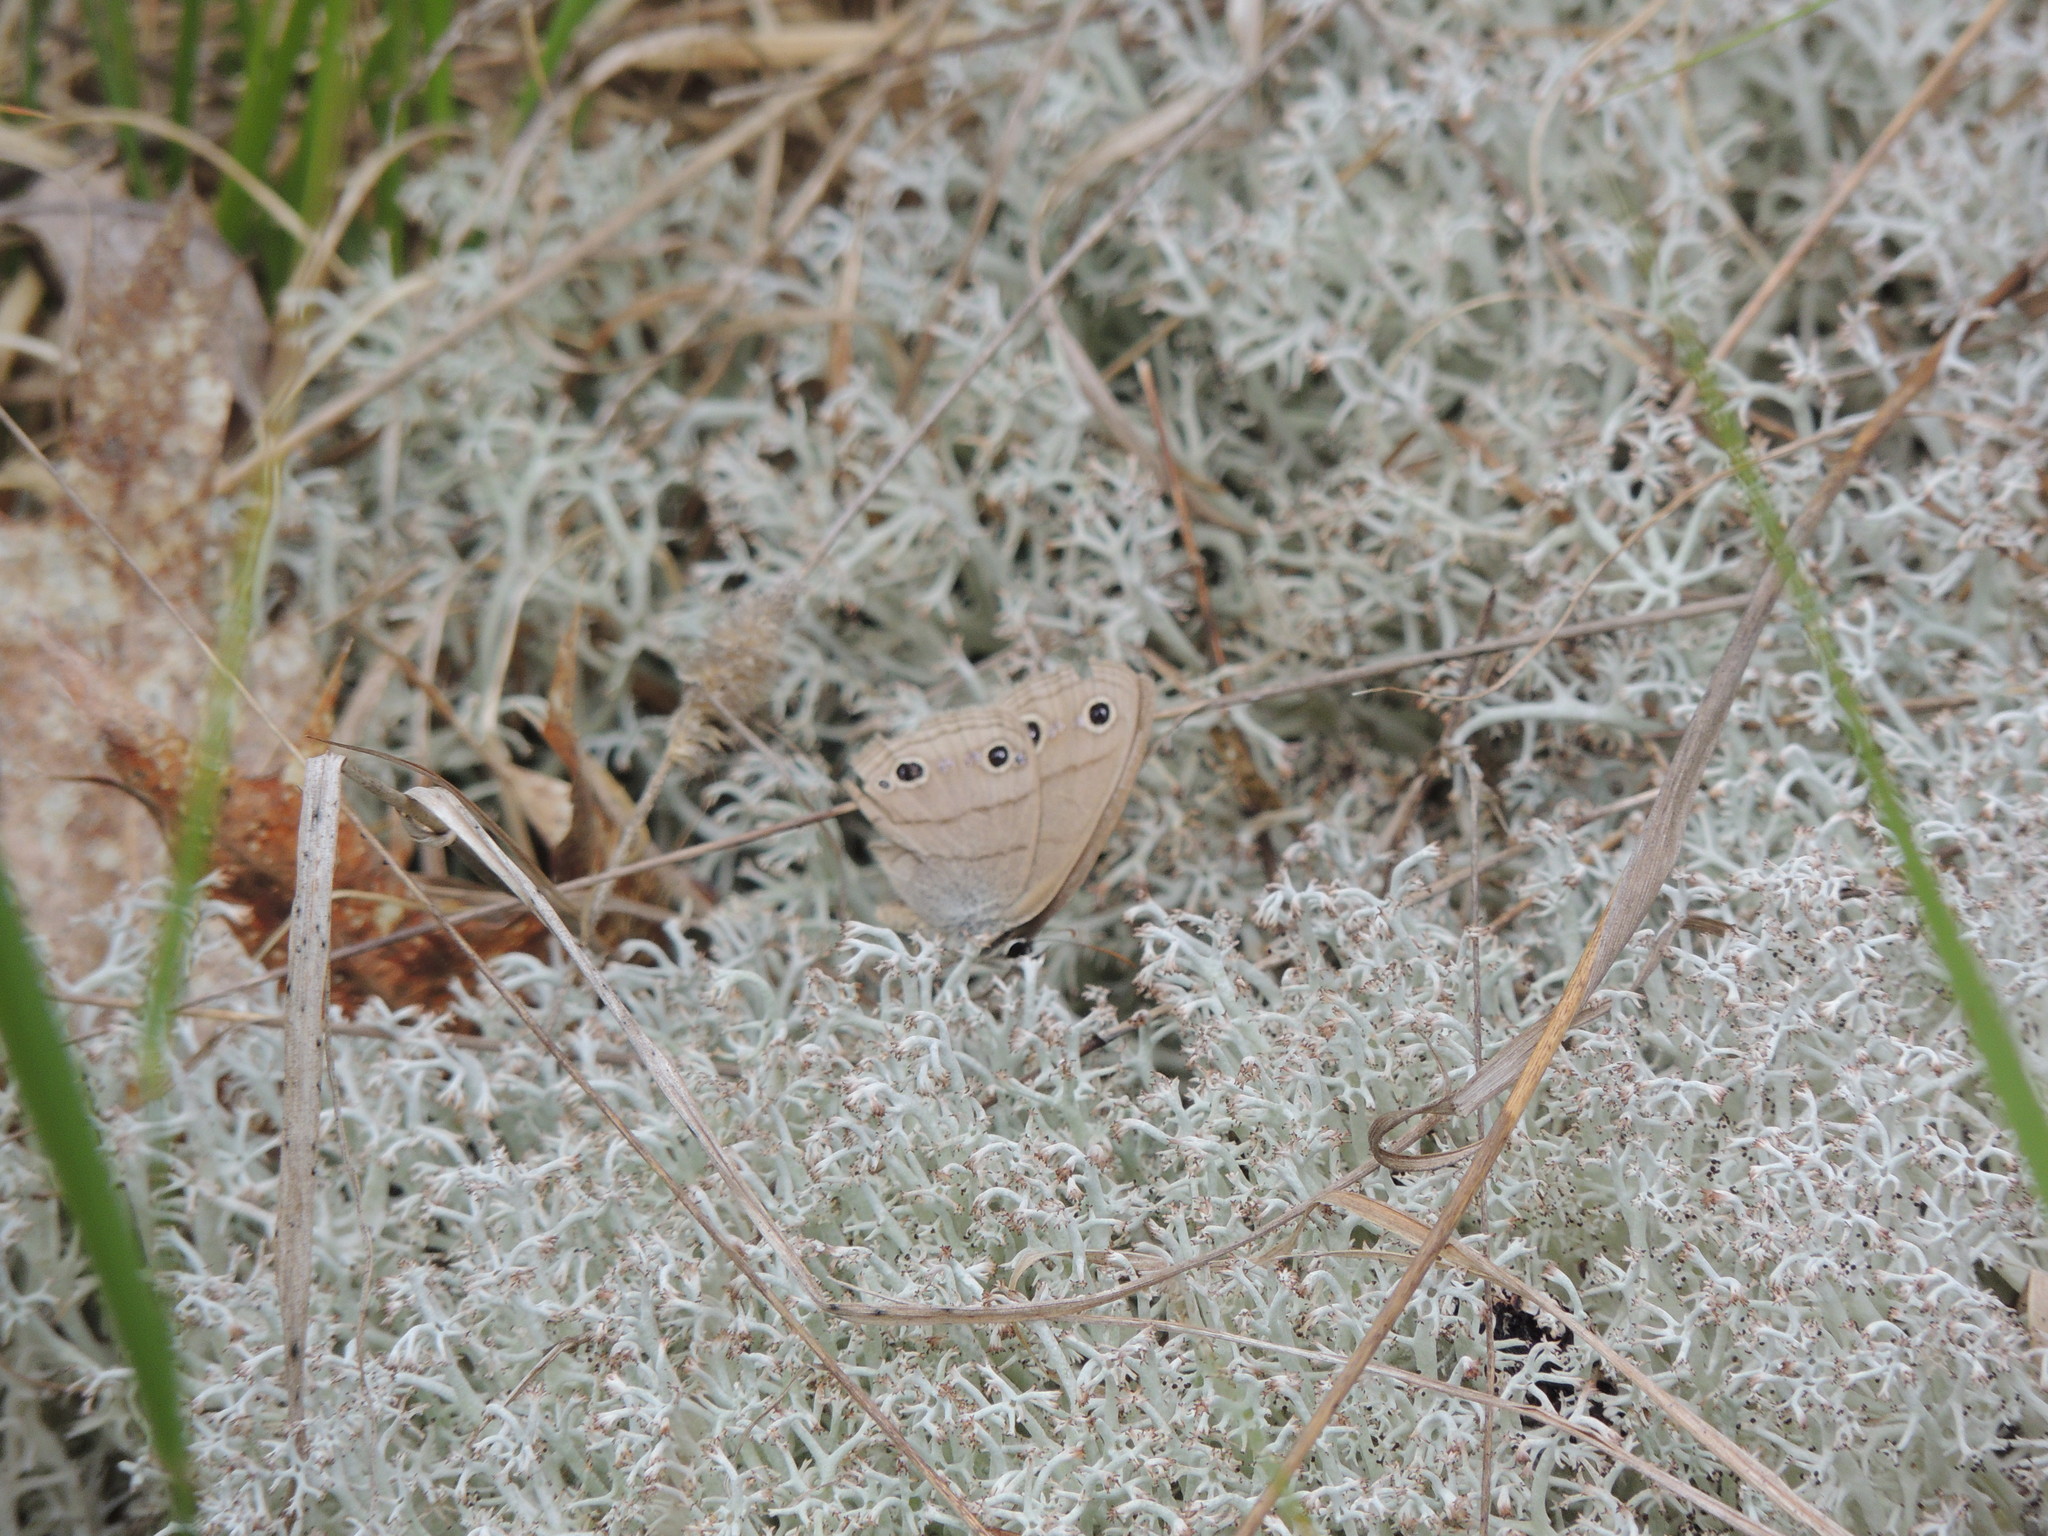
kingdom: Animalia
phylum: Arthropoda
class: Insecta
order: Lepidoptera
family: Nymphalidae
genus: Euptychia
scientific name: Euptychia cymela
